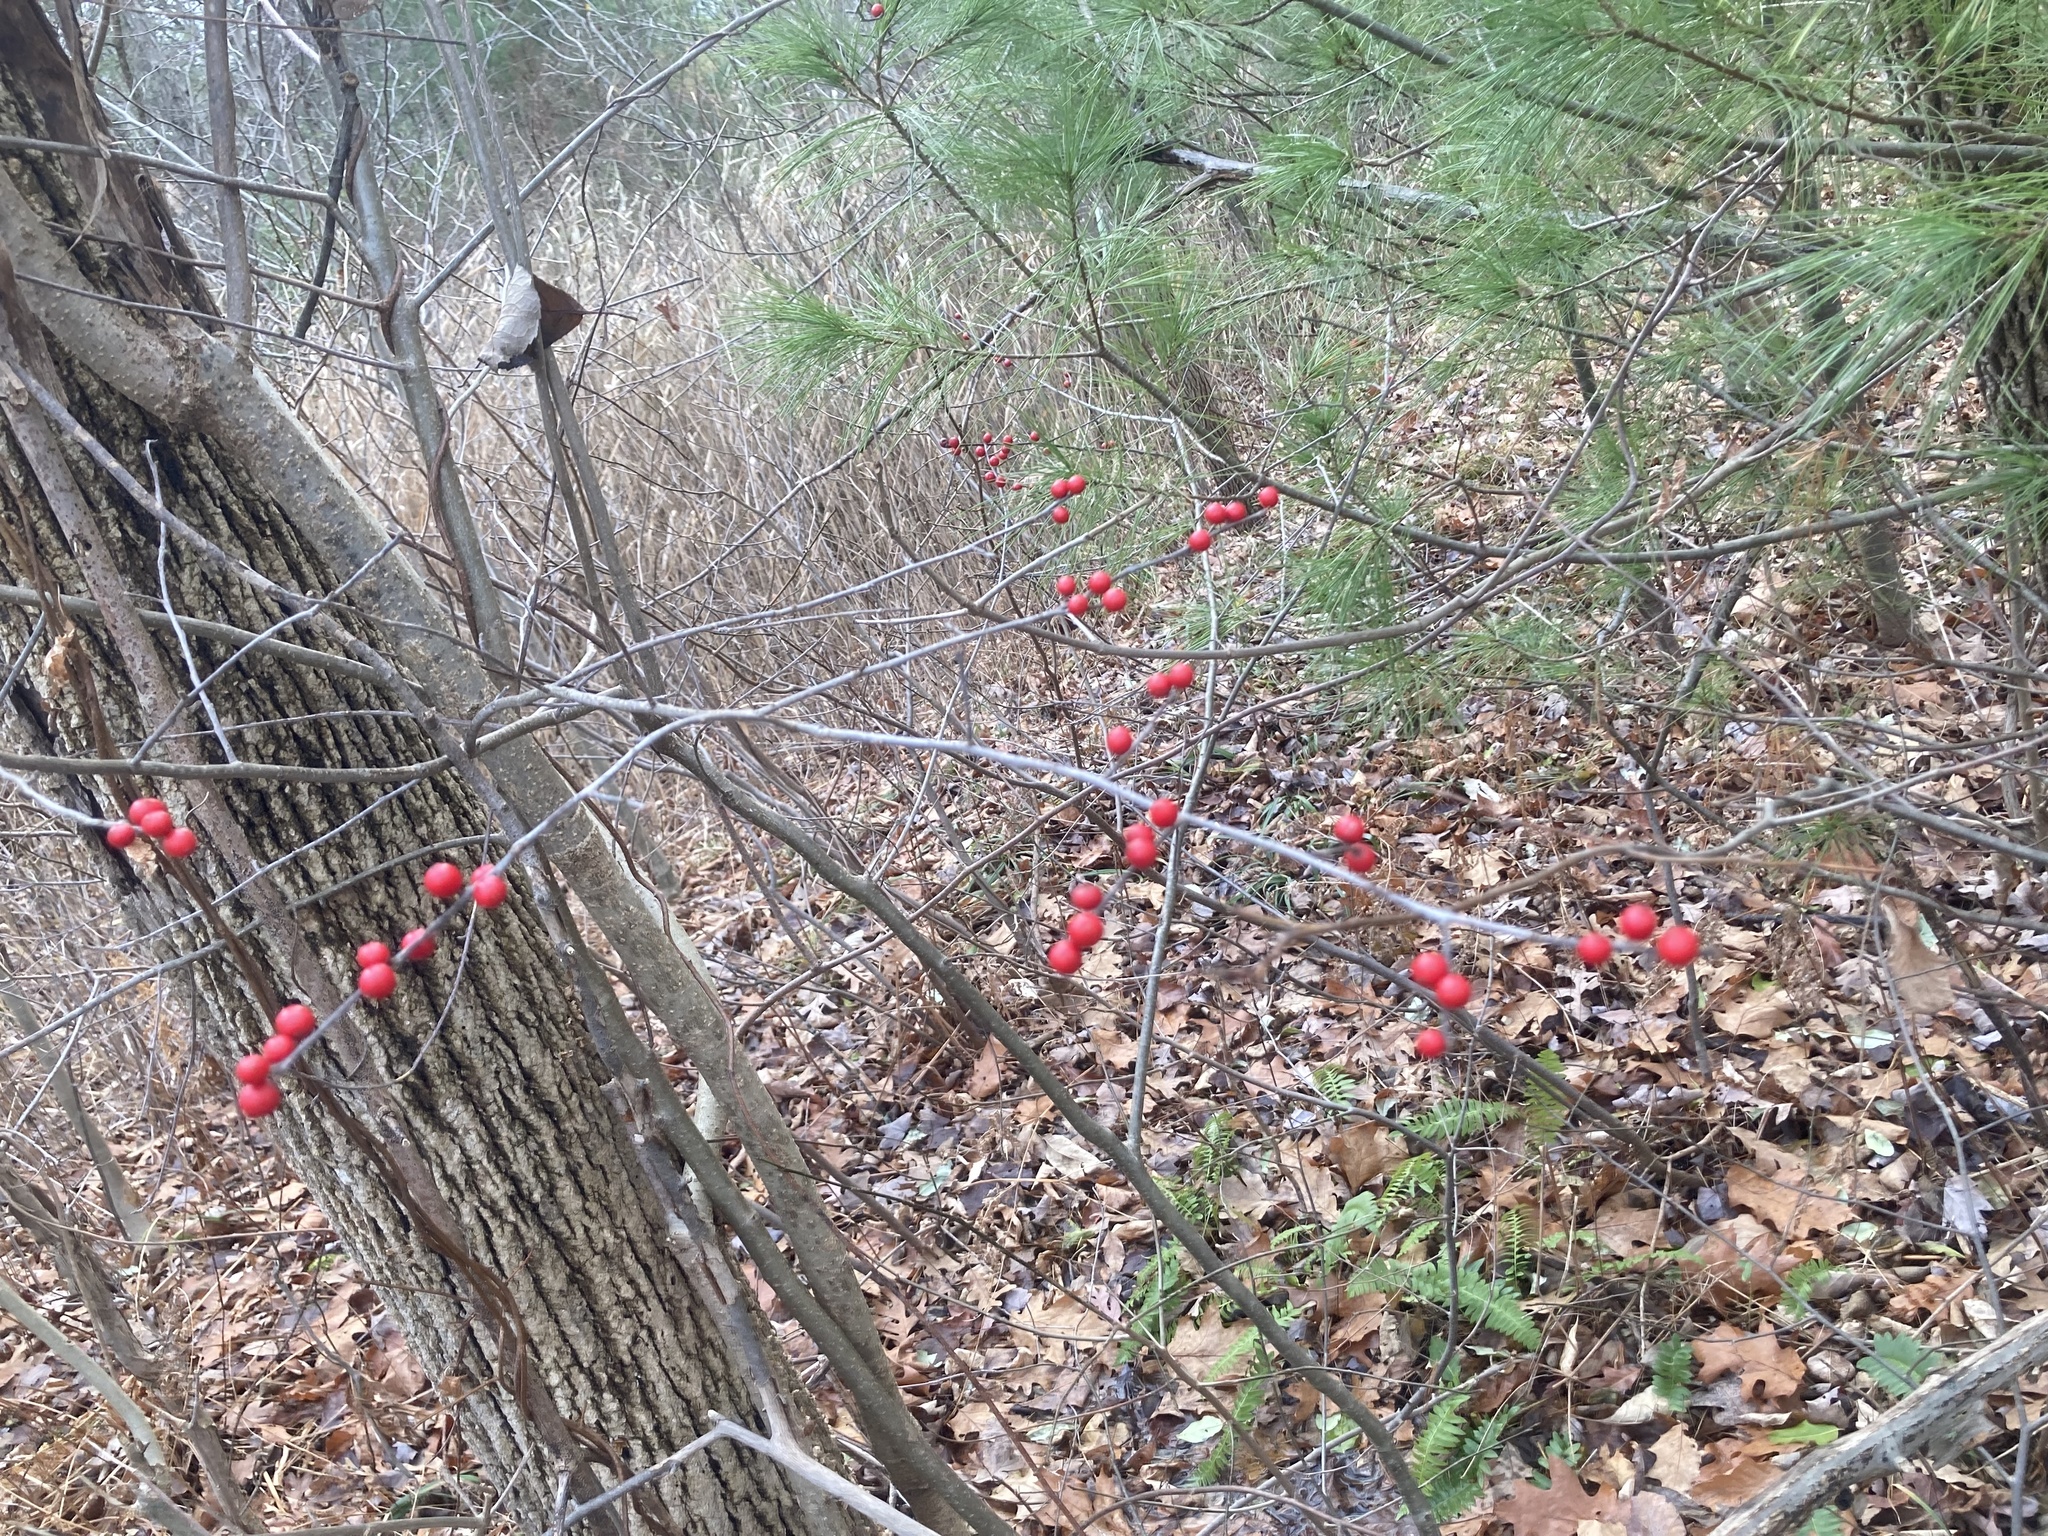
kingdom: Plantae
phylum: Tracheophyta
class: Magnoliopsida
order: Aquifoliales
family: Aquifoliaceae
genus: Ilex
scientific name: Ilex verticillata
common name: Virginia winterberry
